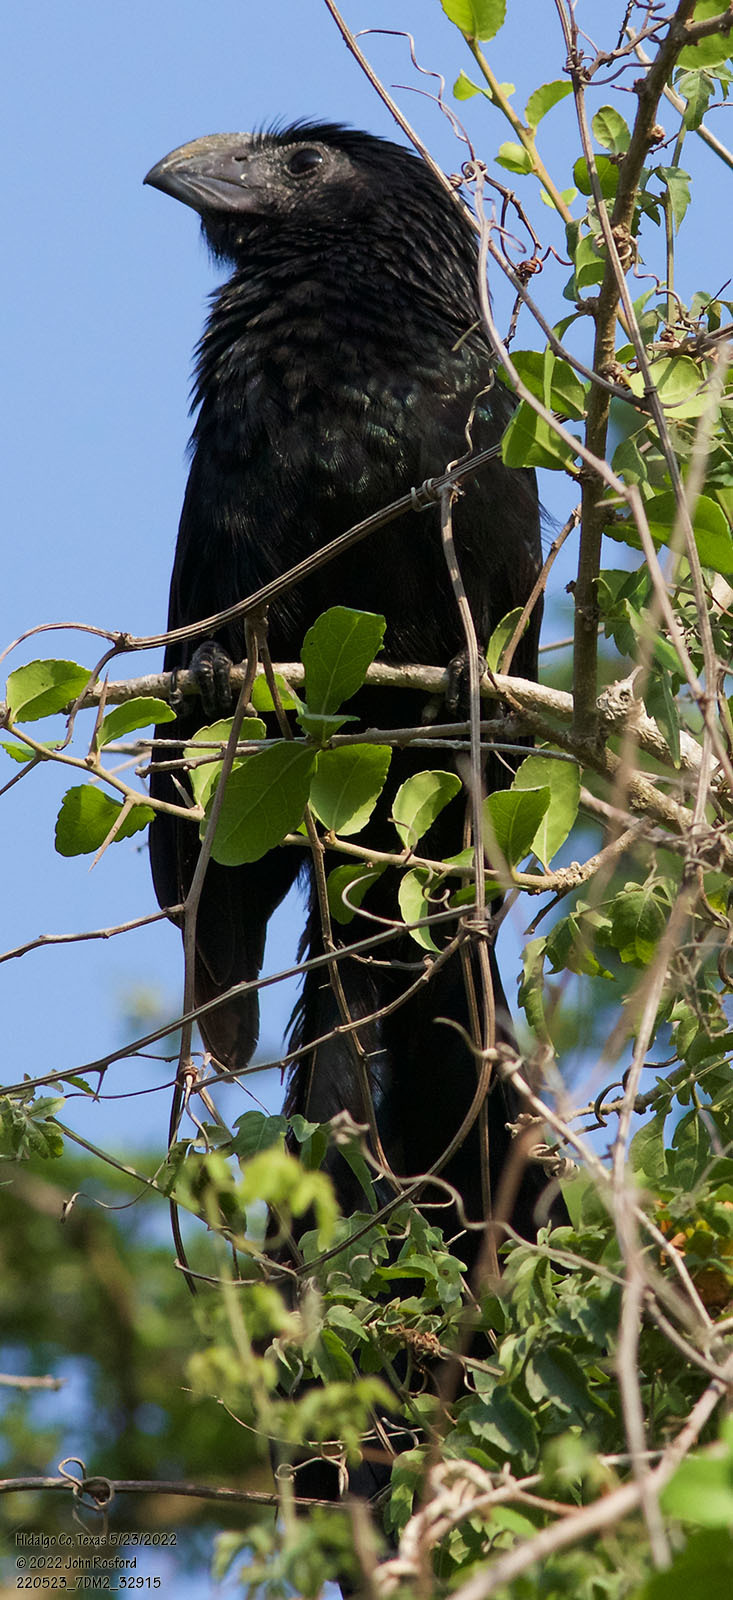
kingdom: Animalia
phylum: Chordata
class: Aves
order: Cuculiformes
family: Cuculidae
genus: Crotophaga
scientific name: Crotophaga sulcirostris
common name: Groove-billed ani
